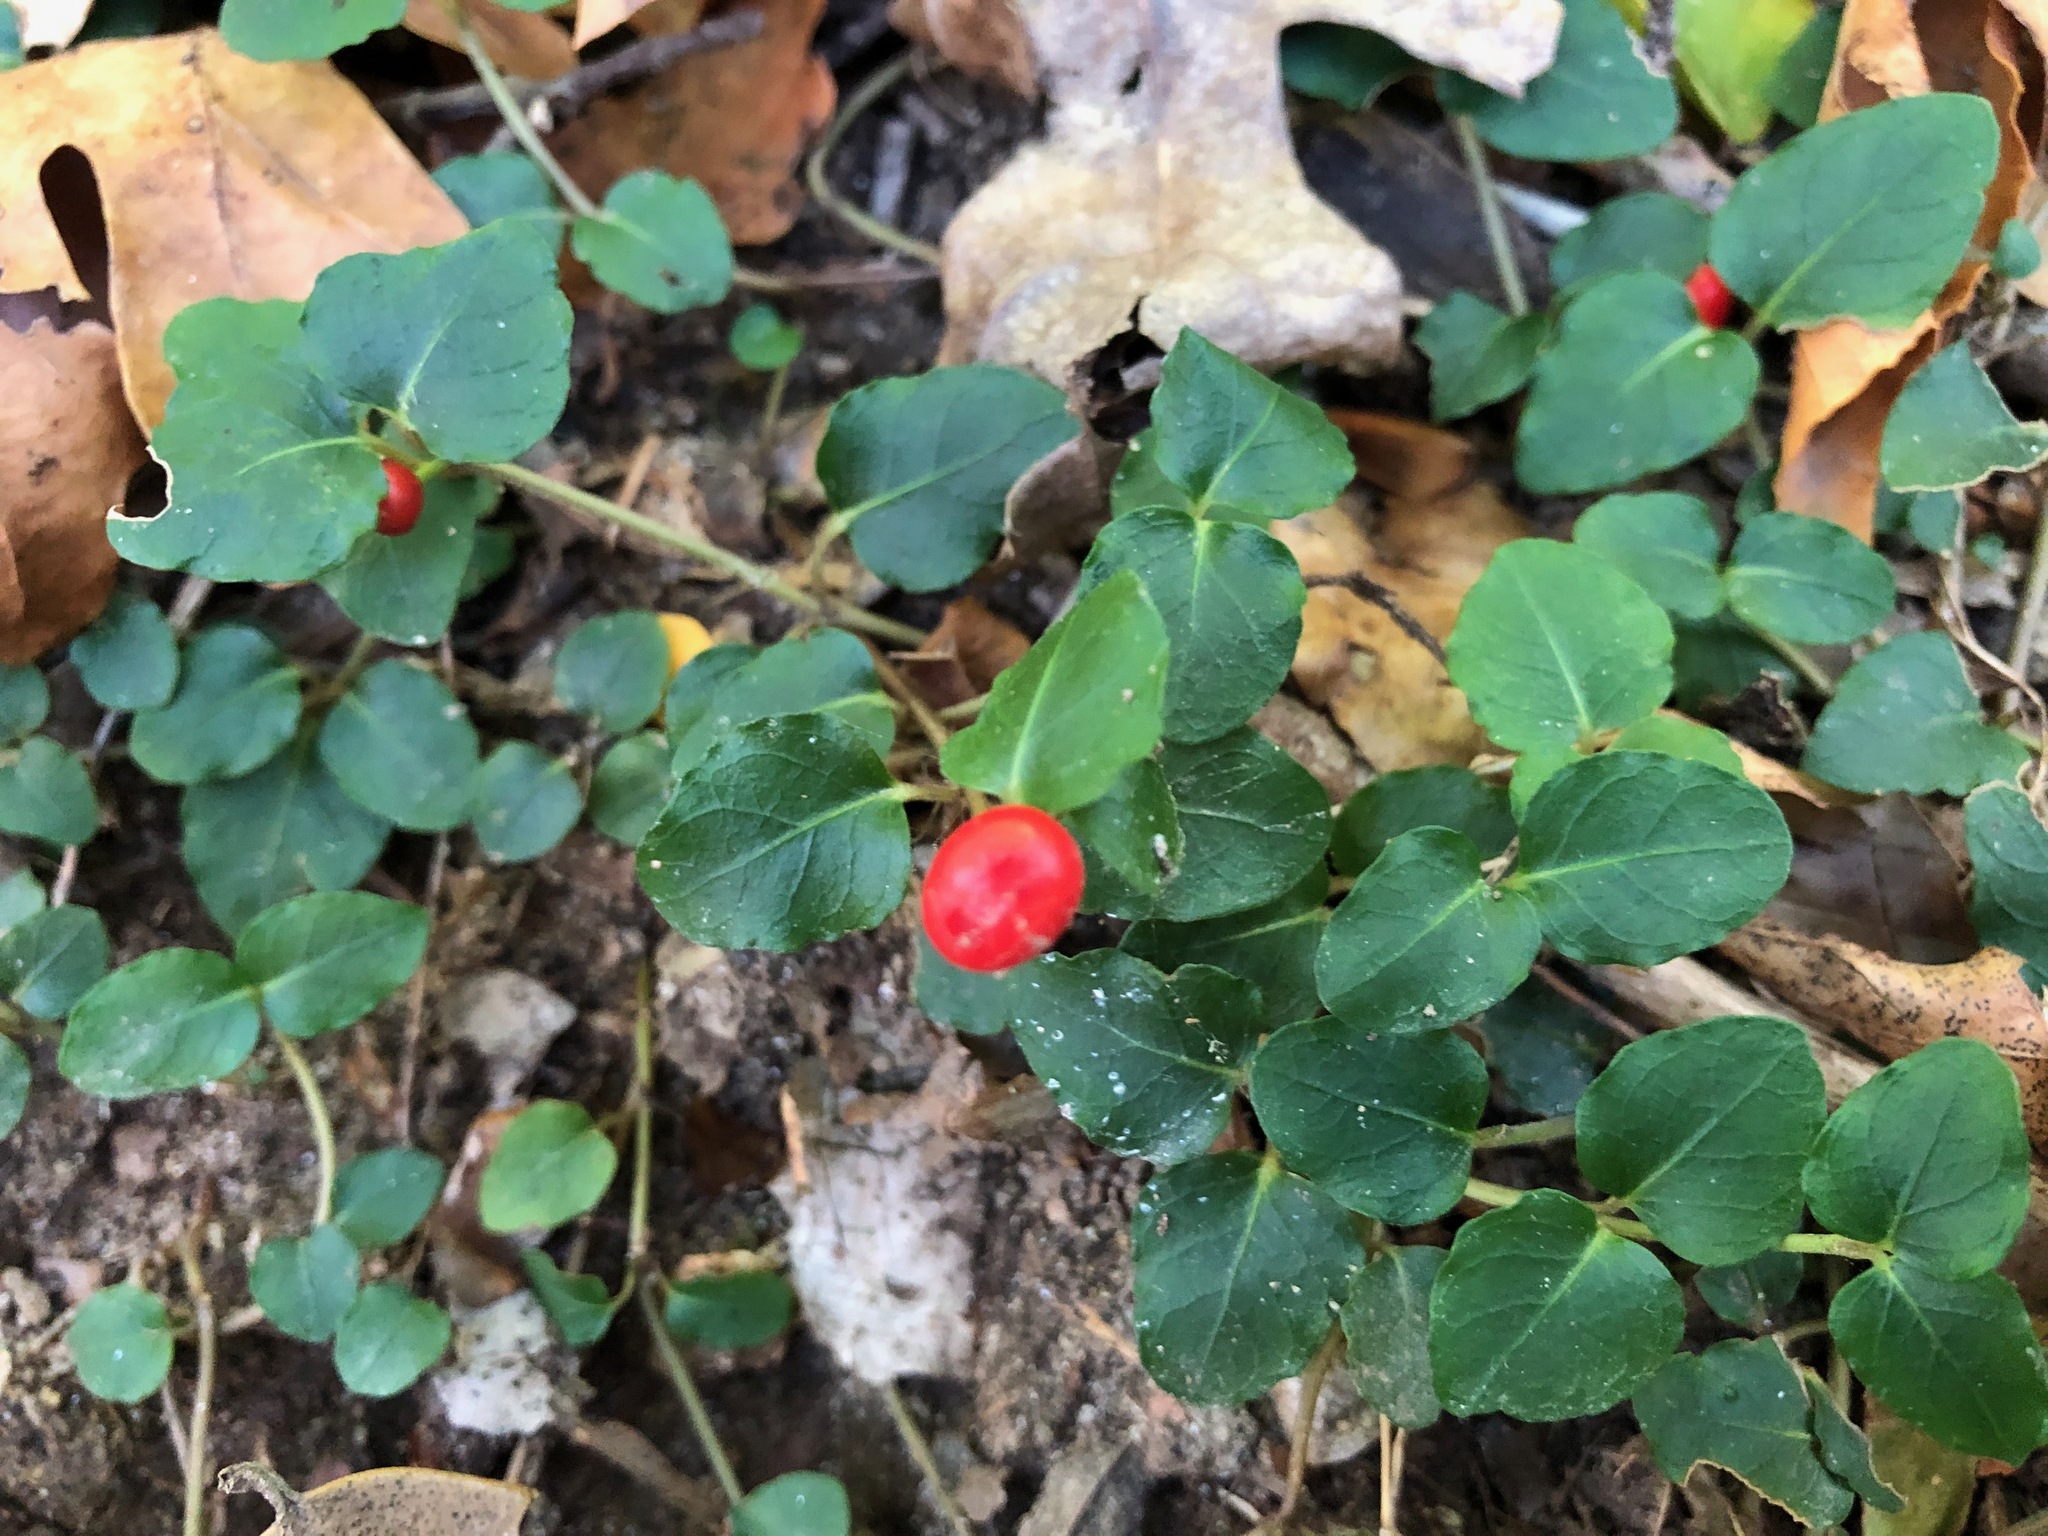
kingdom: Plantae
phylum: Tracheophyta
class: Magnoliopsida
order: Gentianales
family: Rubiaceae
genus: Mitchella
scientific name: Mitchella repens
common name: Partridge-berry
